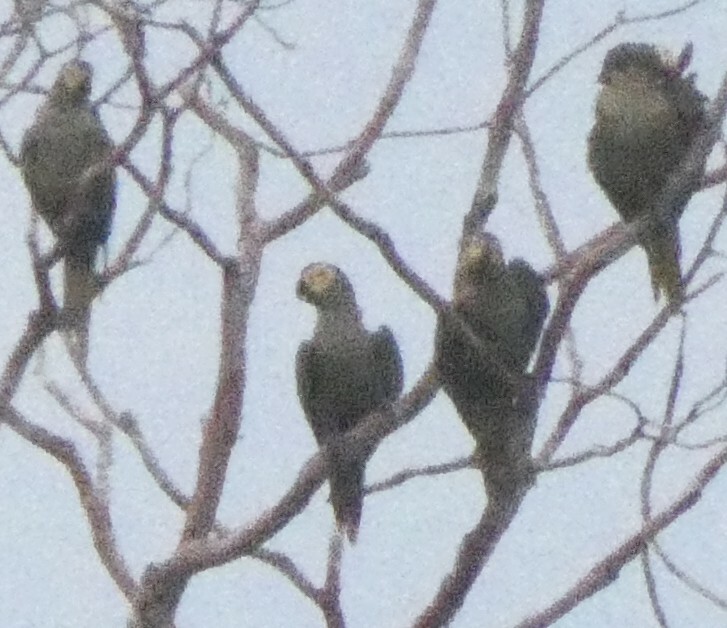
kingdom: Animalia
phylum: Chordata
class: Aves
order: Psittaciformes
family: Psittacidae
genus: Orthopsittaca
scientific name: Orthopsittaca manilata
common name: Red-bellied macaw
